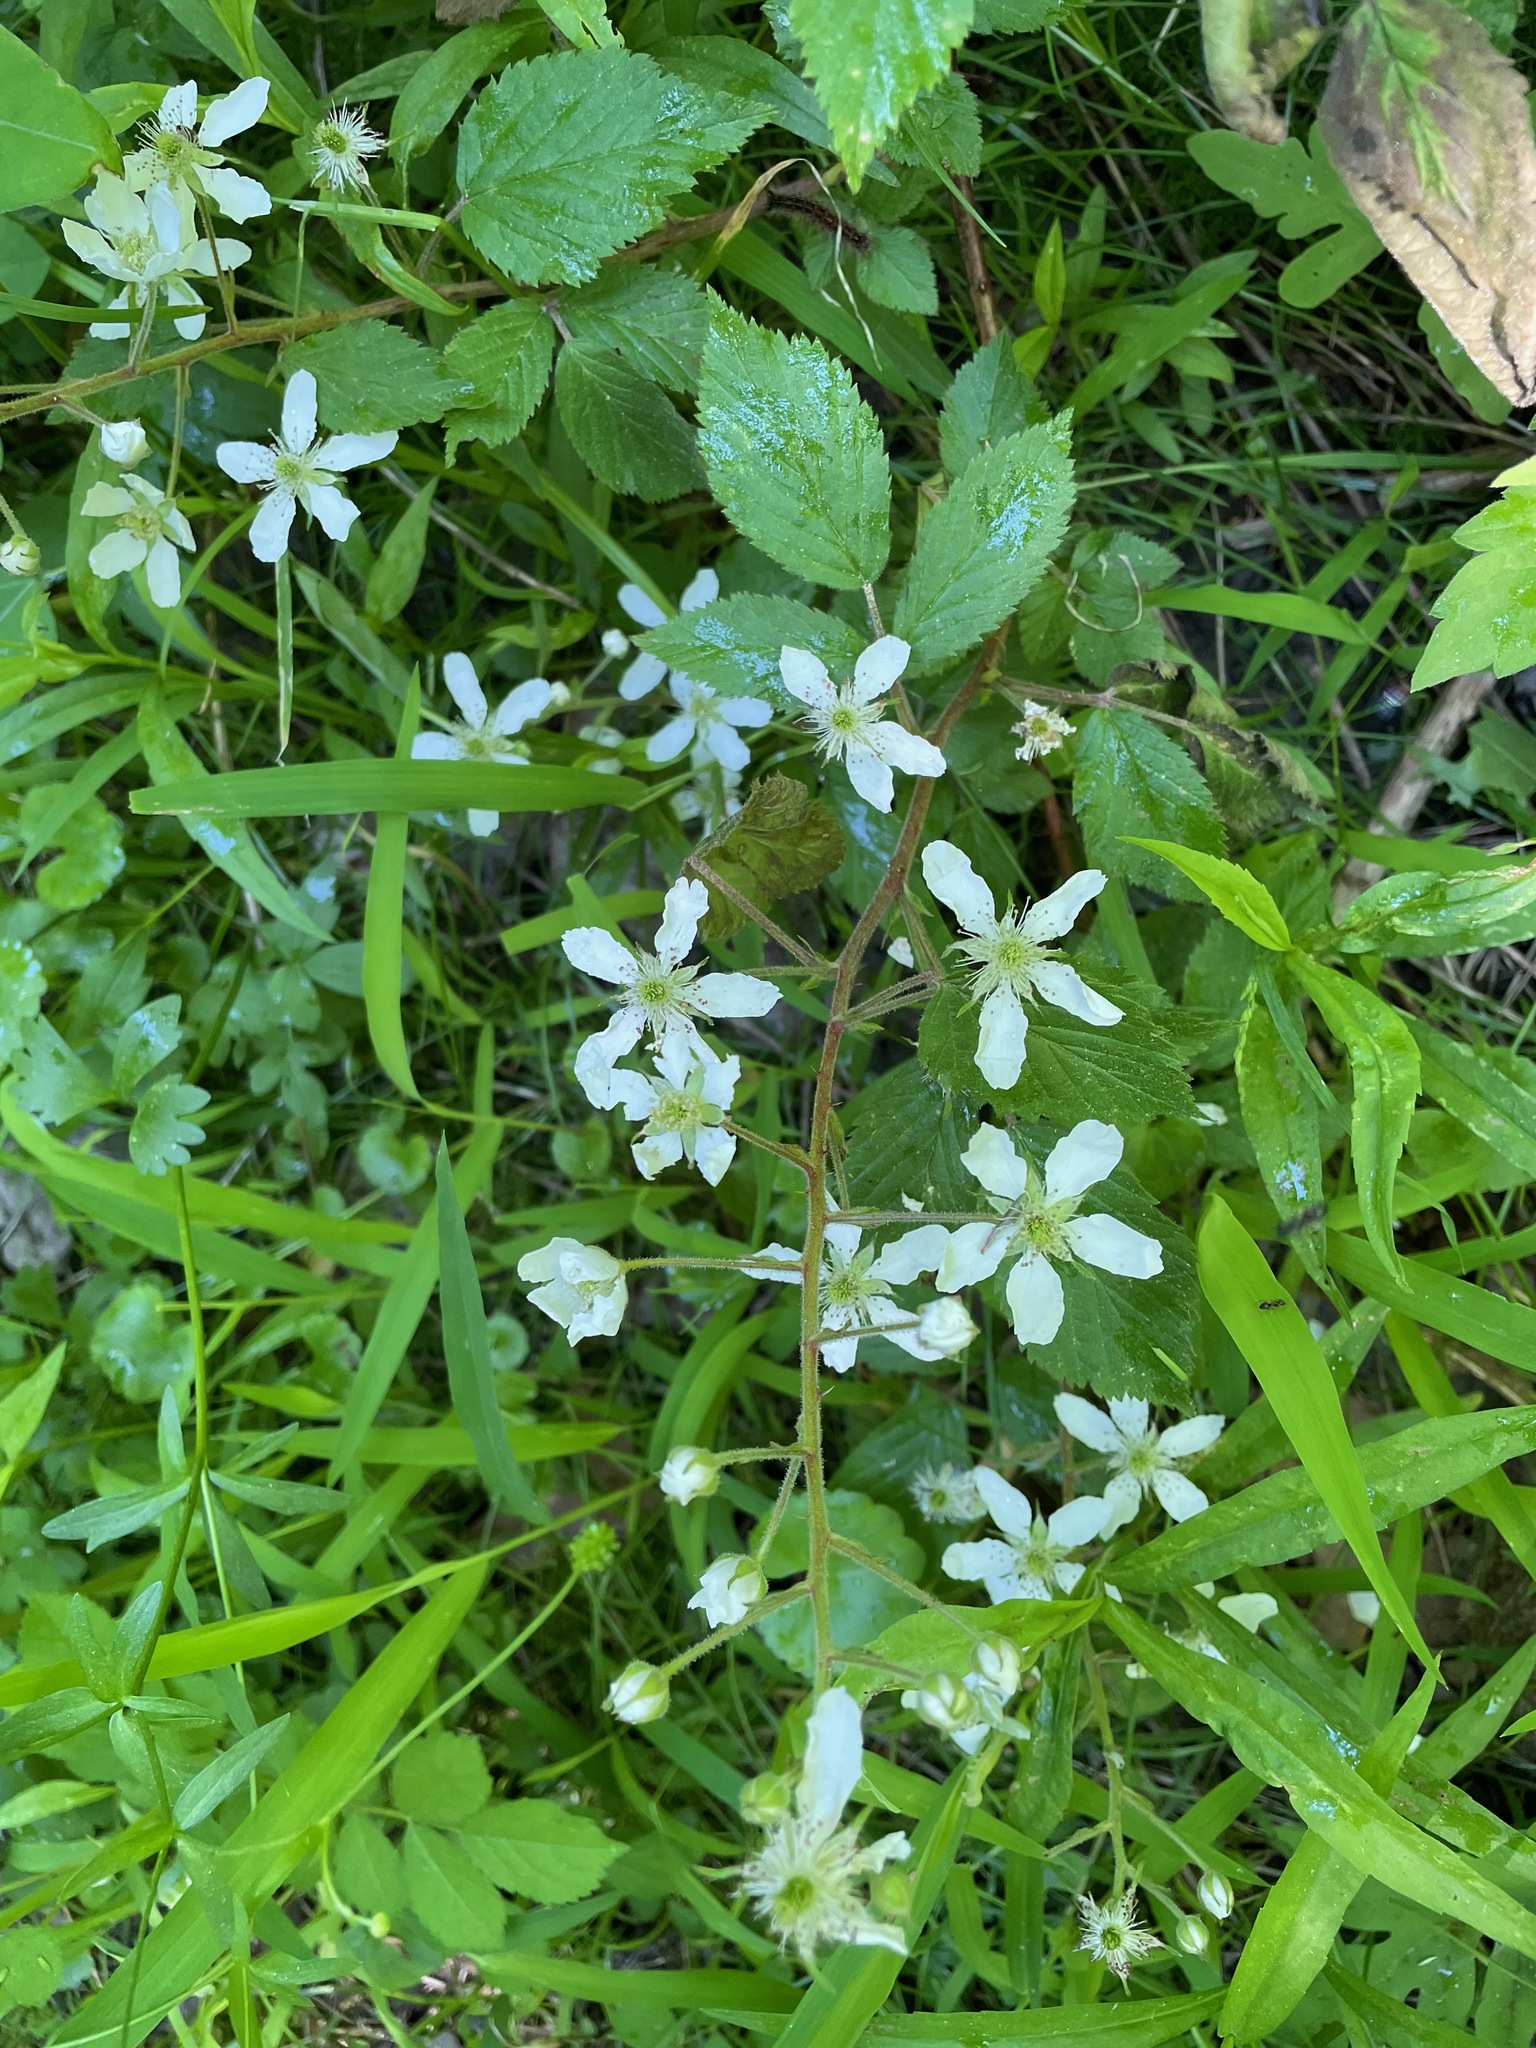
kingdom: Plantae
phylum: Tracheophyta
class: Magnoliopsida
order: Rosales
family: Rosaceae
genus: Rubus
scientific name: Rubus allegheniensis
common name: Allegheny blackberry
